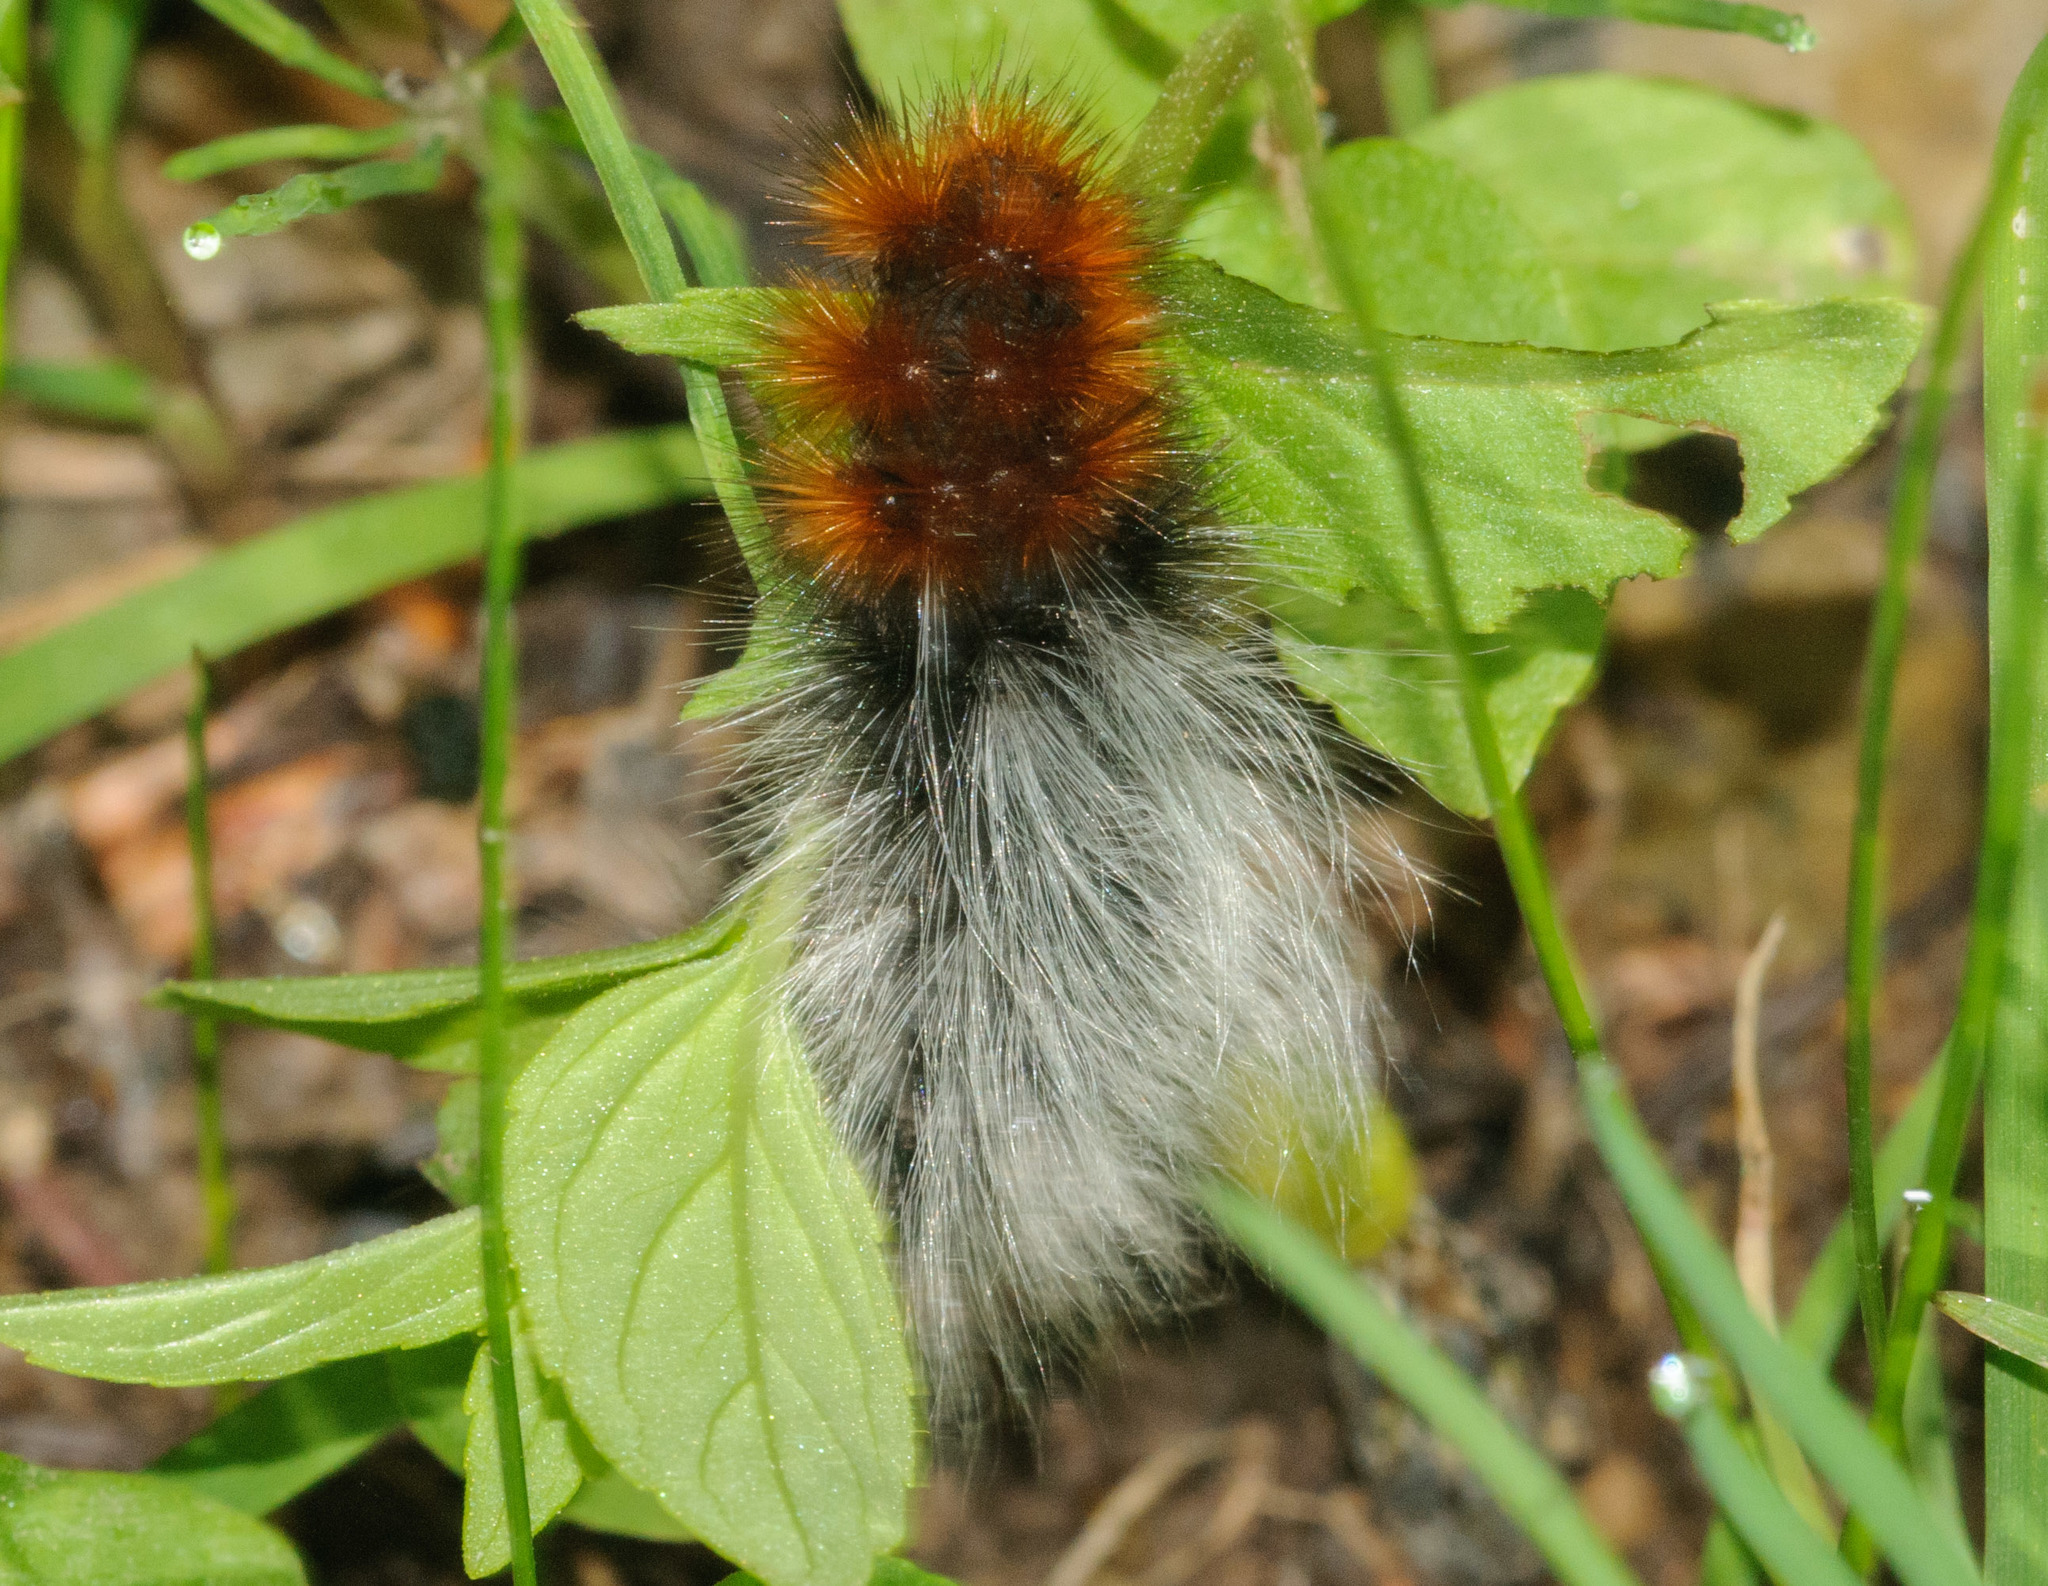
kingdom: Animalia
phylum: Arthropoda
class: Insecta
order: Lepidoptera
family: Erebidae
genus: Arctia
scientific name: Arctia tigrina
